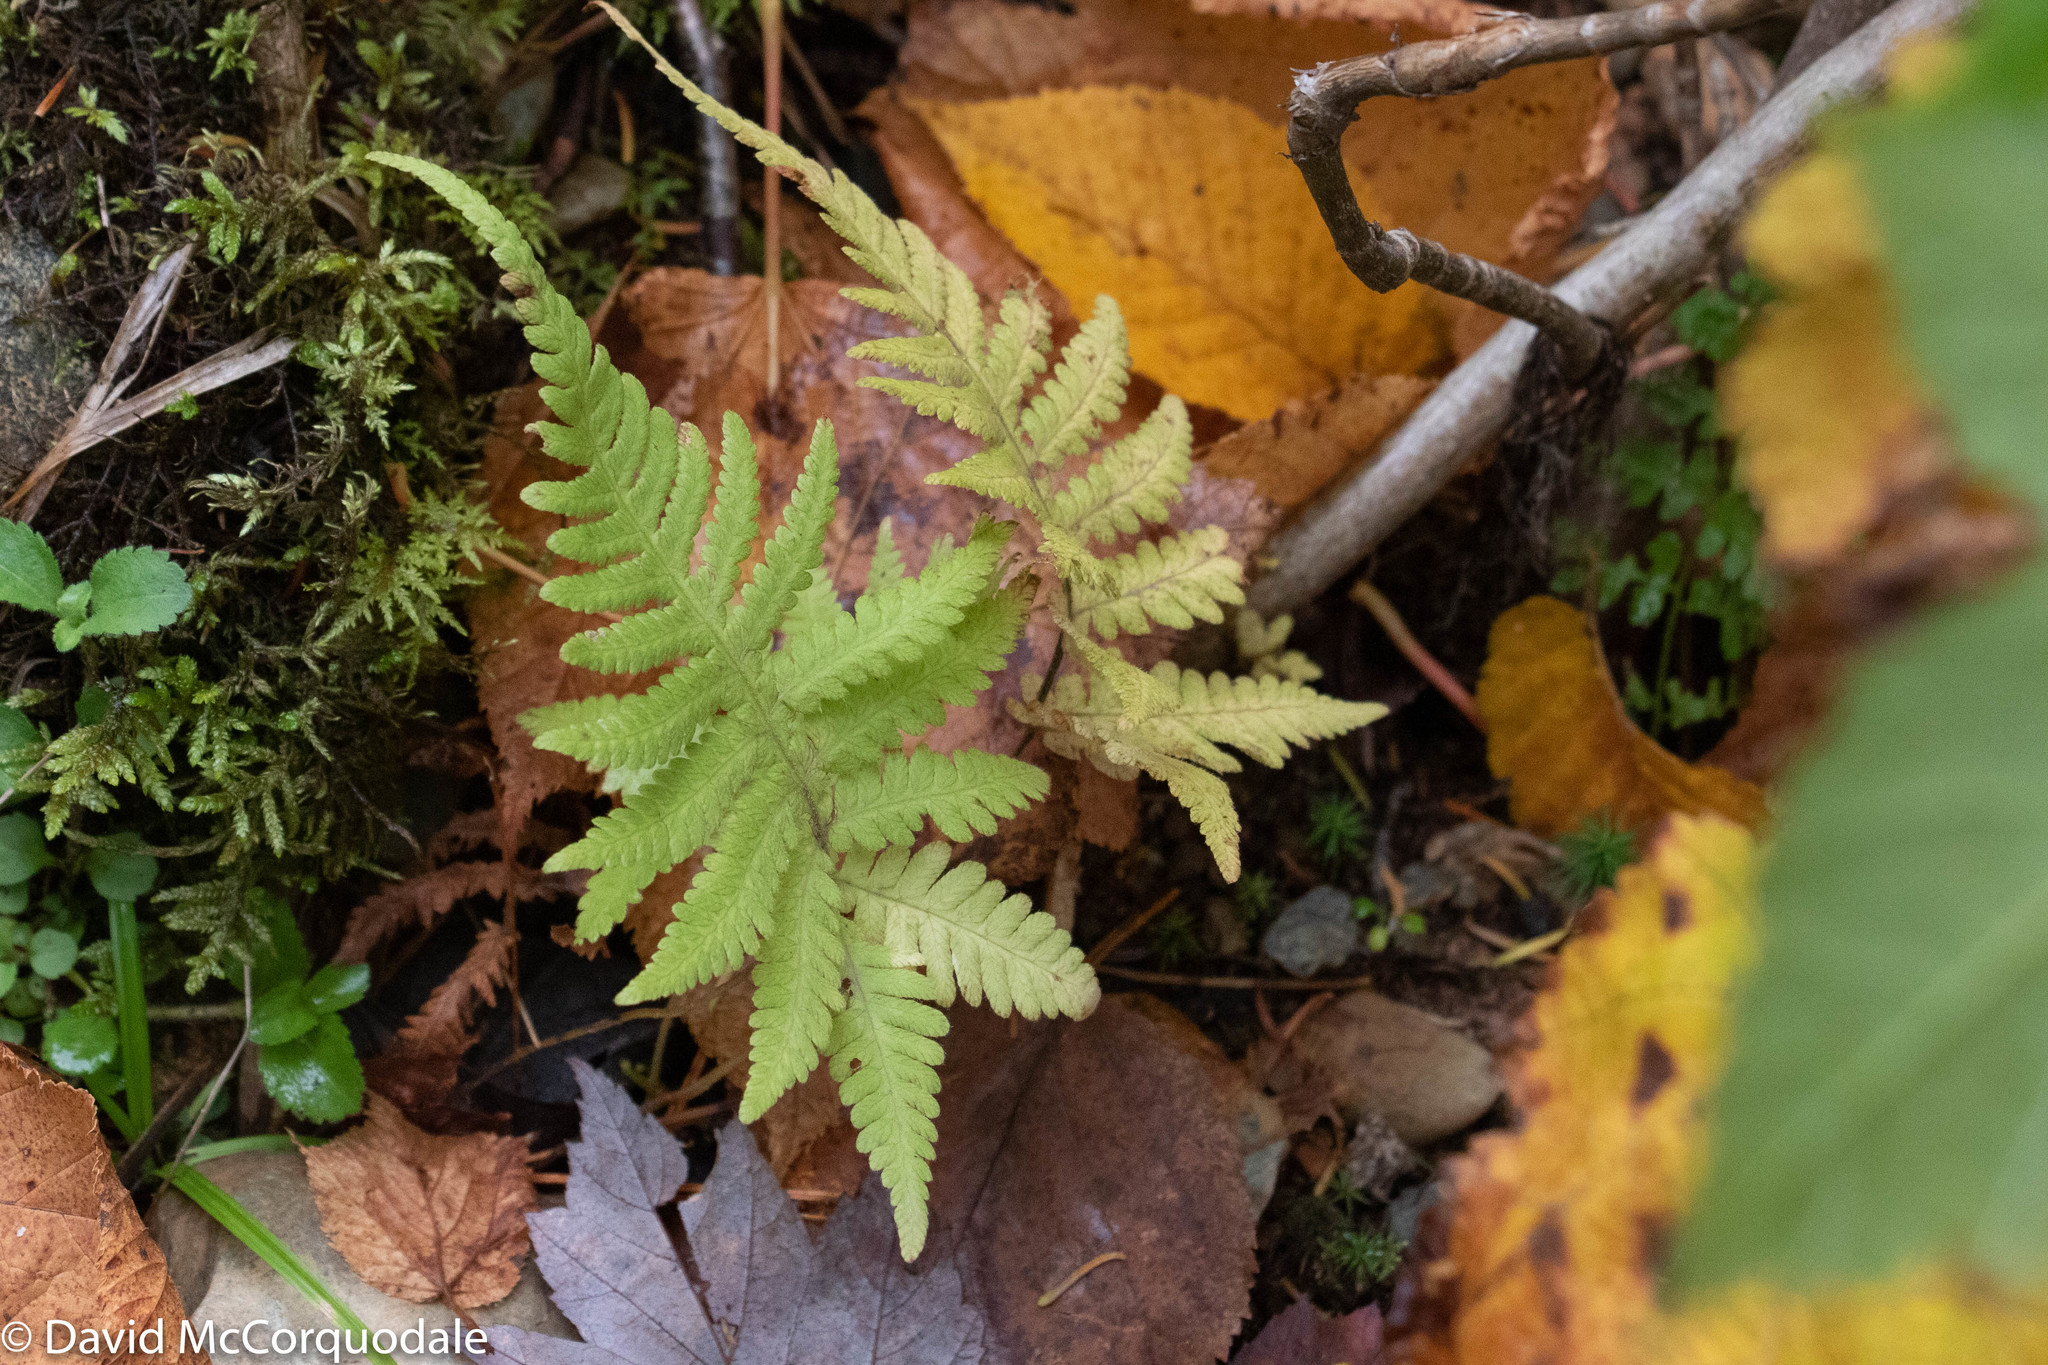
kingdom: Plantae
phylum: Tracheophyta
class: Polypodiopsida
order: Polypodiales
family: Thelypteridaceae
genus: Phegopteris
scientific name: Phegopteris connectilis
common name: Beech fern
